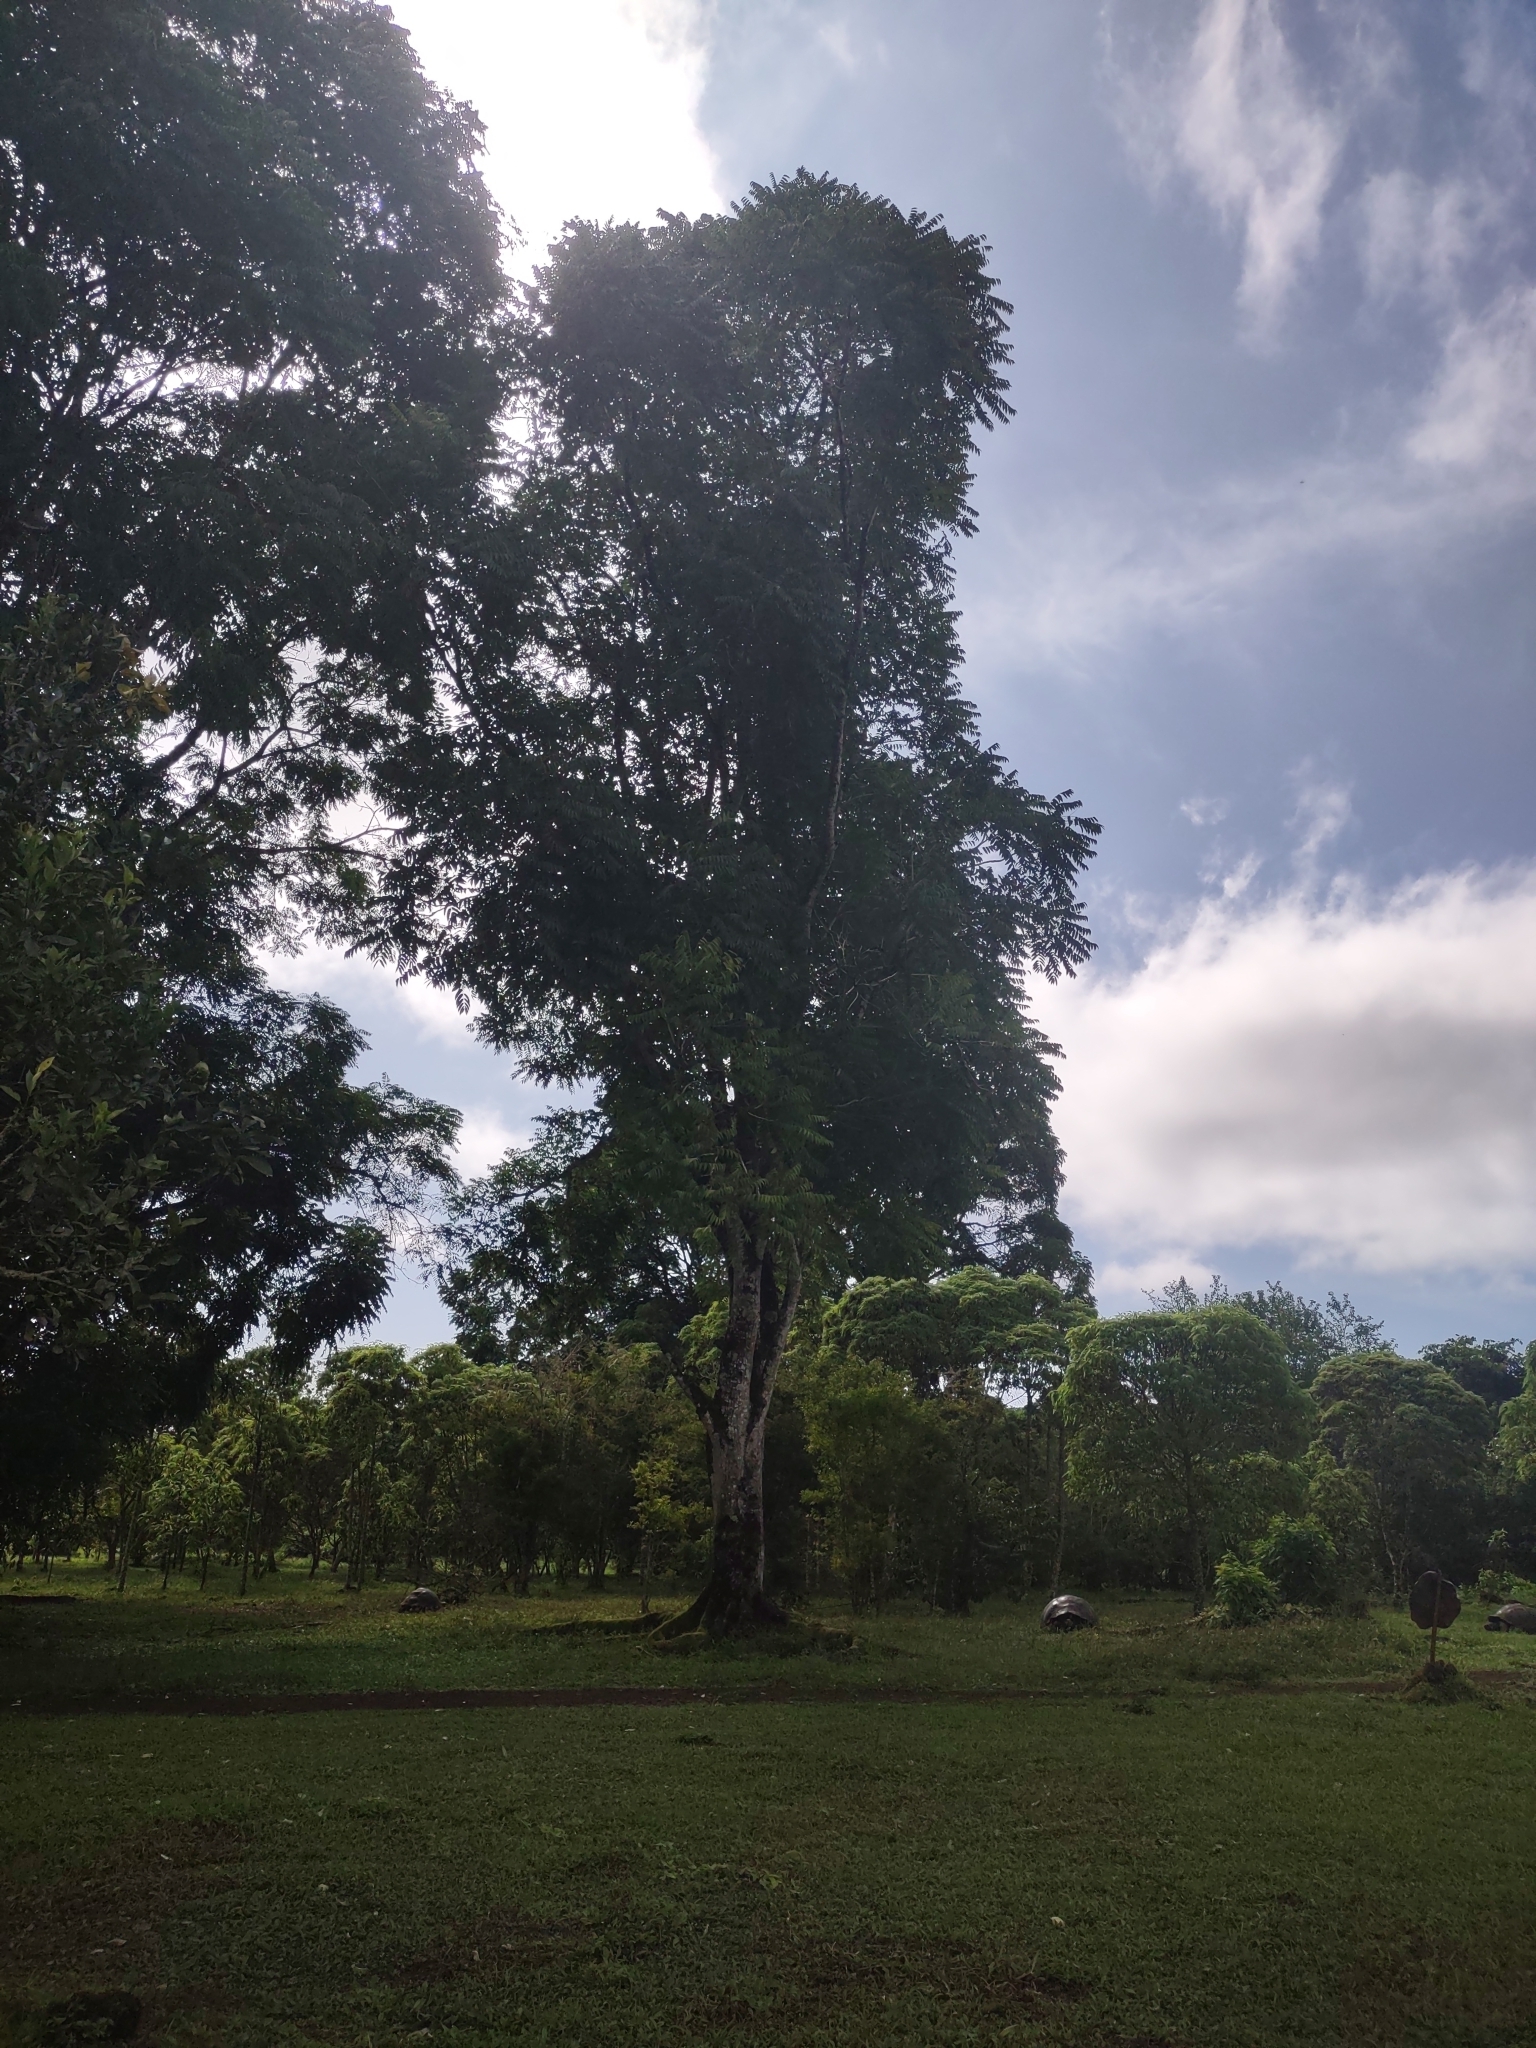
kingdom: Plantae
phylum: Tracheophyta
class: Magnoliopsida
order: Sapindales
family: Meliaceae
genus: Cedrela
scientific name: Cedrela odorata
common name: Red cedar
